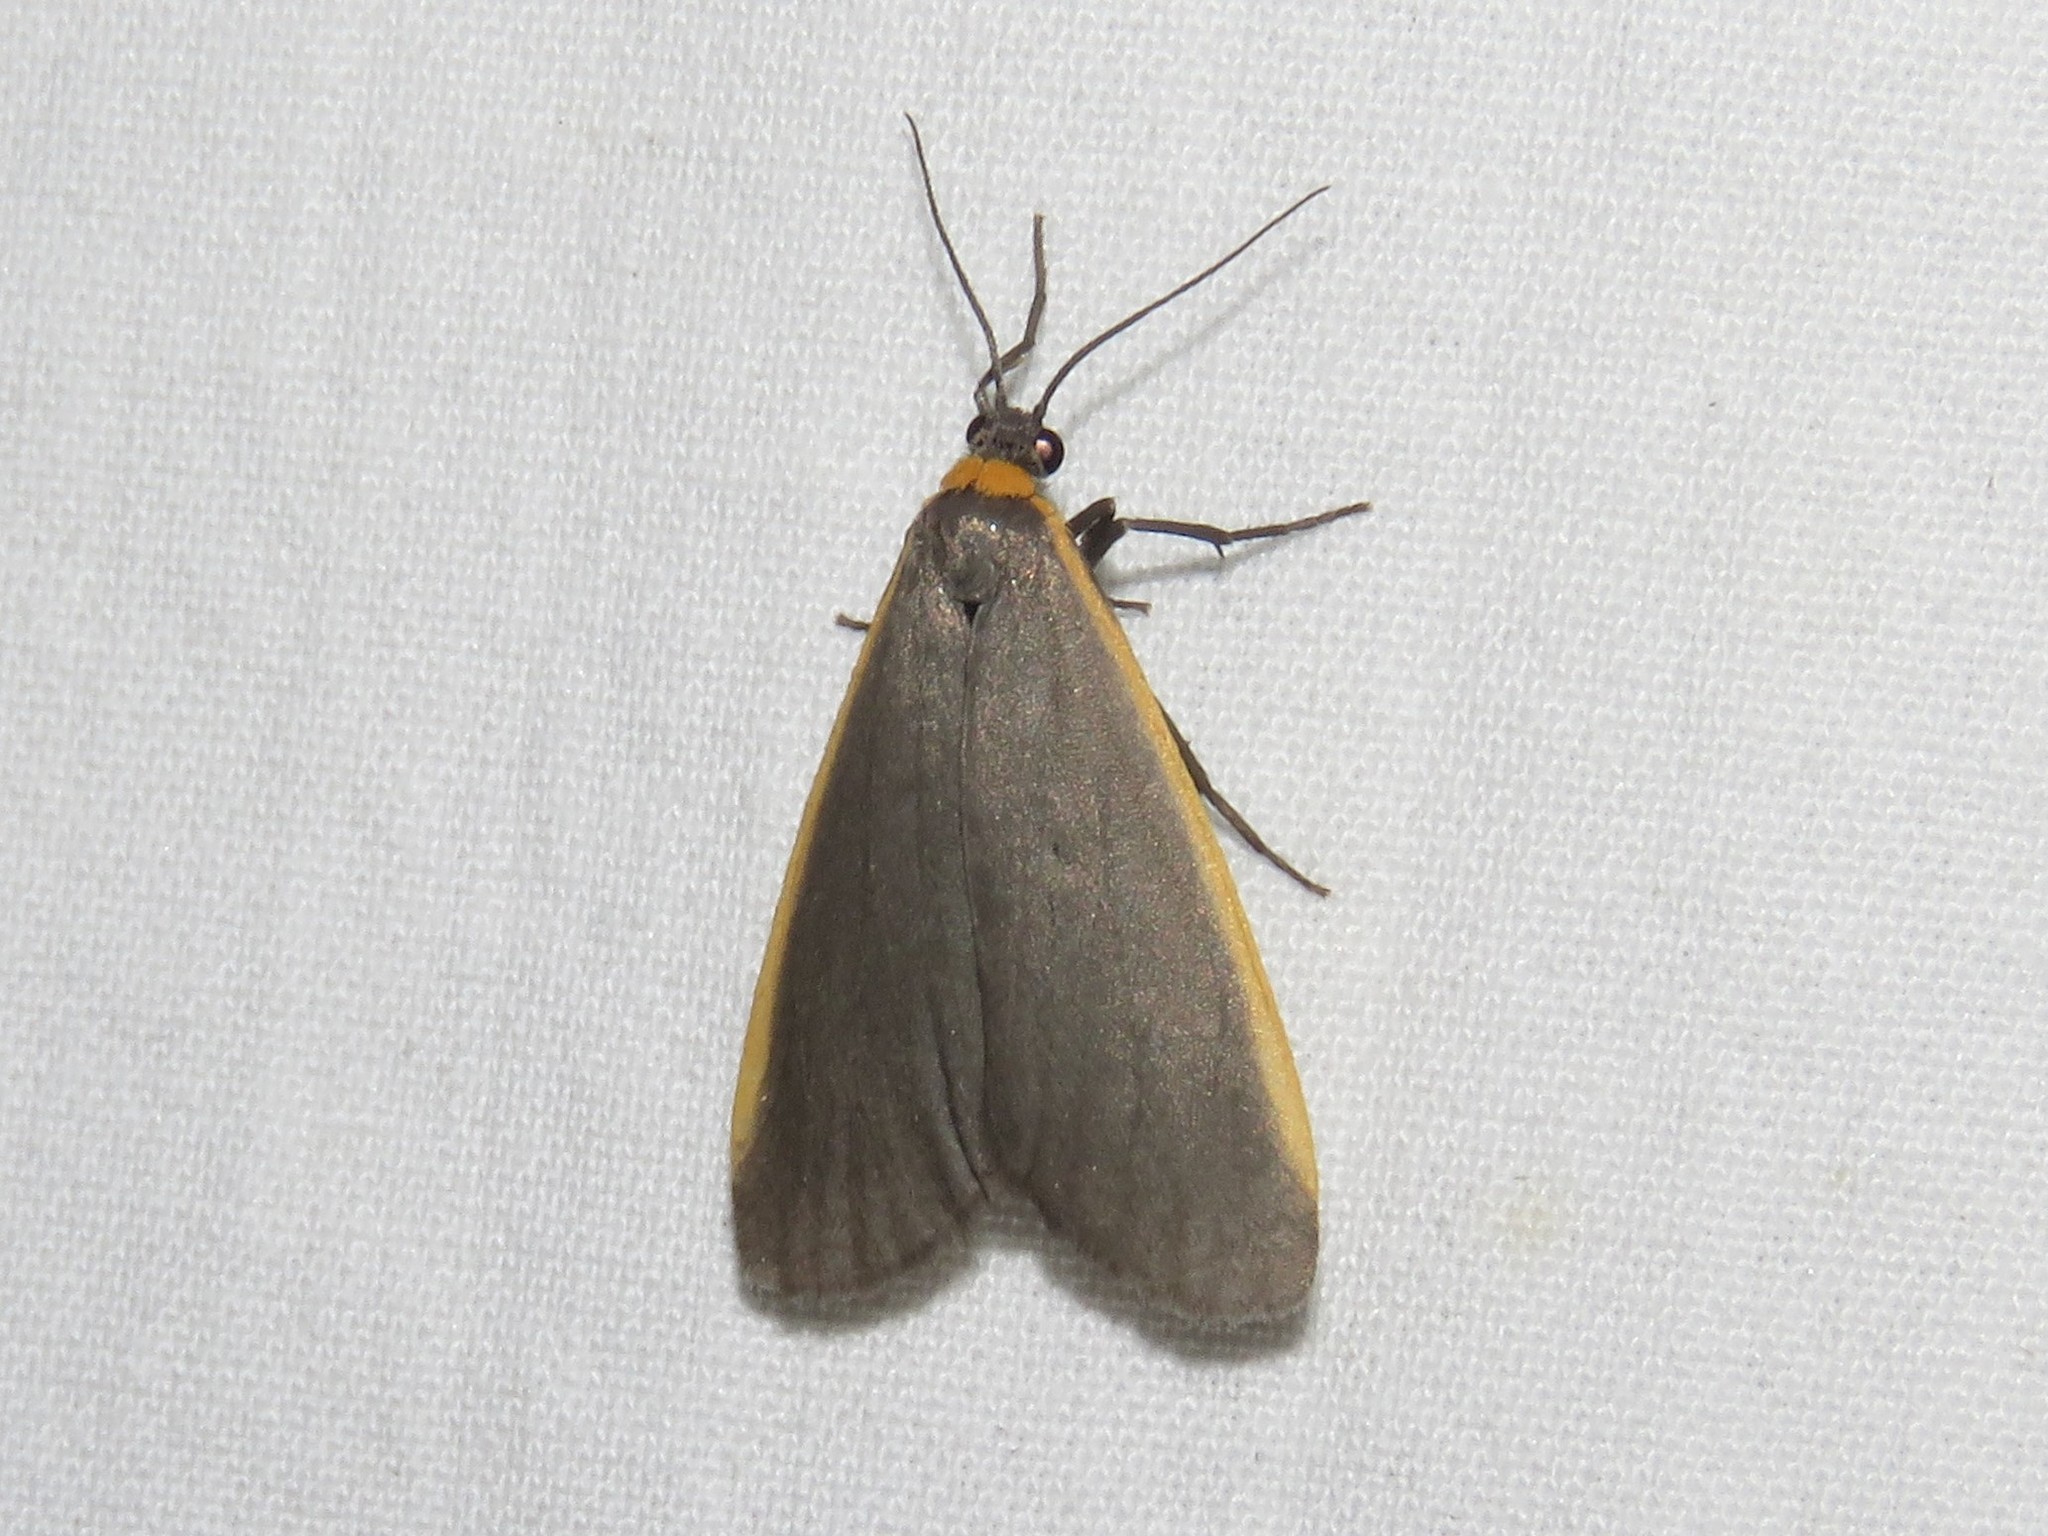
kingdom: Animalia
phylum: Arthropoda
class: Insecta
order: Lepidoptera
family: Erebidae
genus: Manulea
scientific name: Manulea bicolor
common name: Bicolored moth
